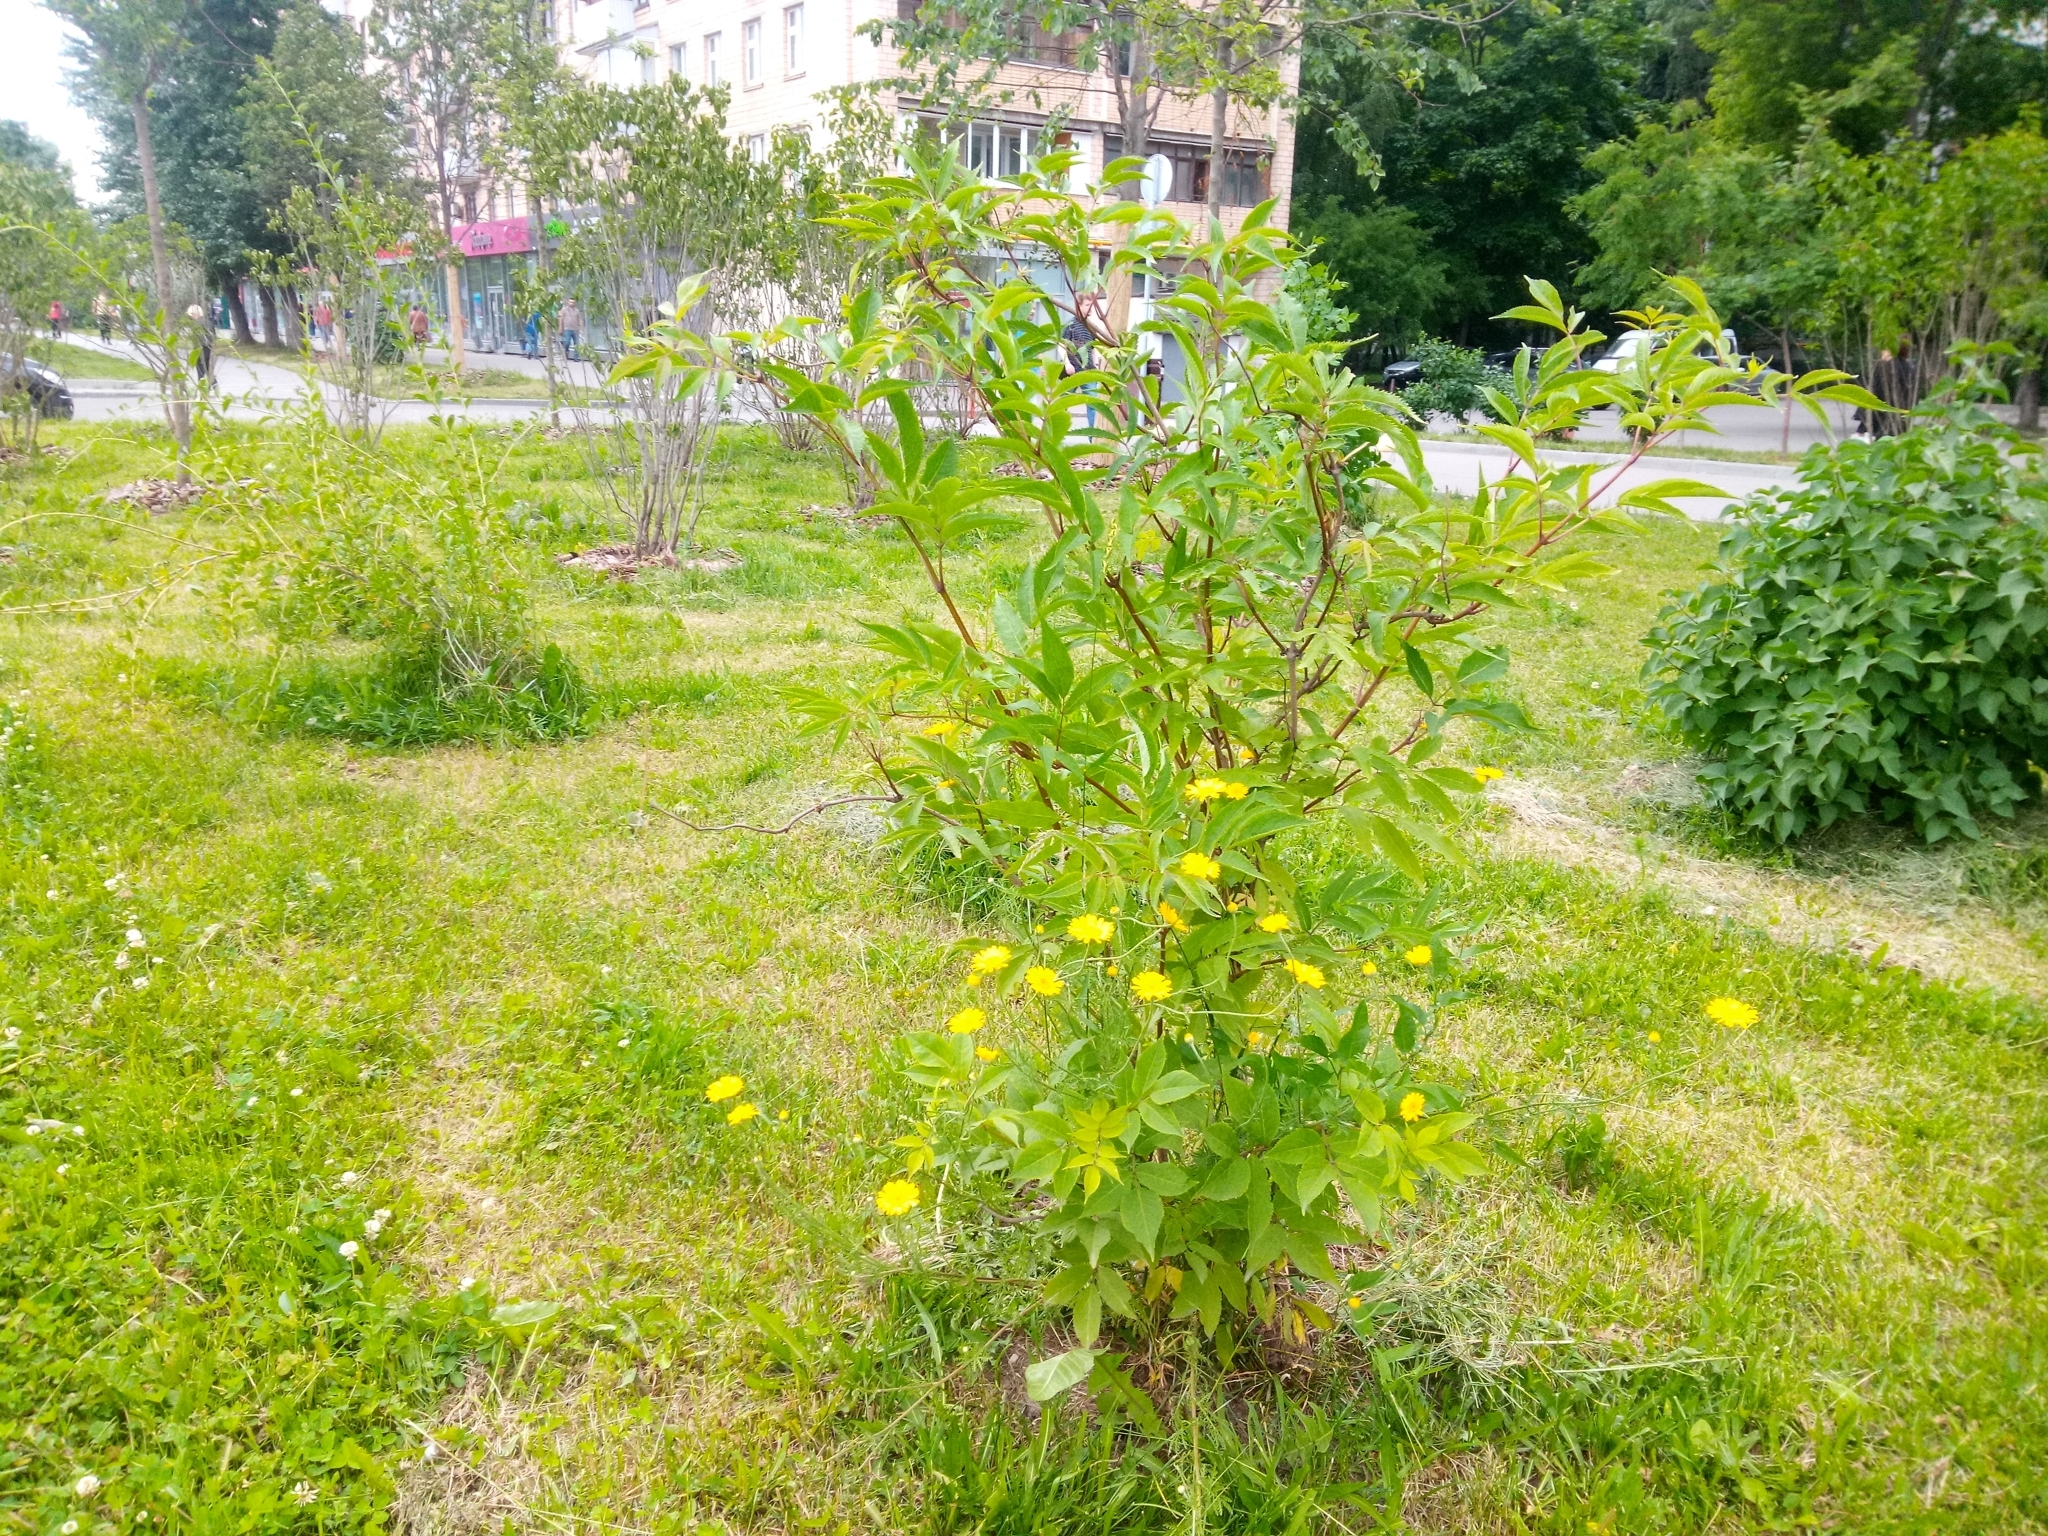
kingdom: Plantae
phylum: Tracheophyta
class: Magnoliopsida
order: Asterales
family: Asteraceae
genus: Cota
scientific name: Cota tinctoria
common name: Golden chamomile
